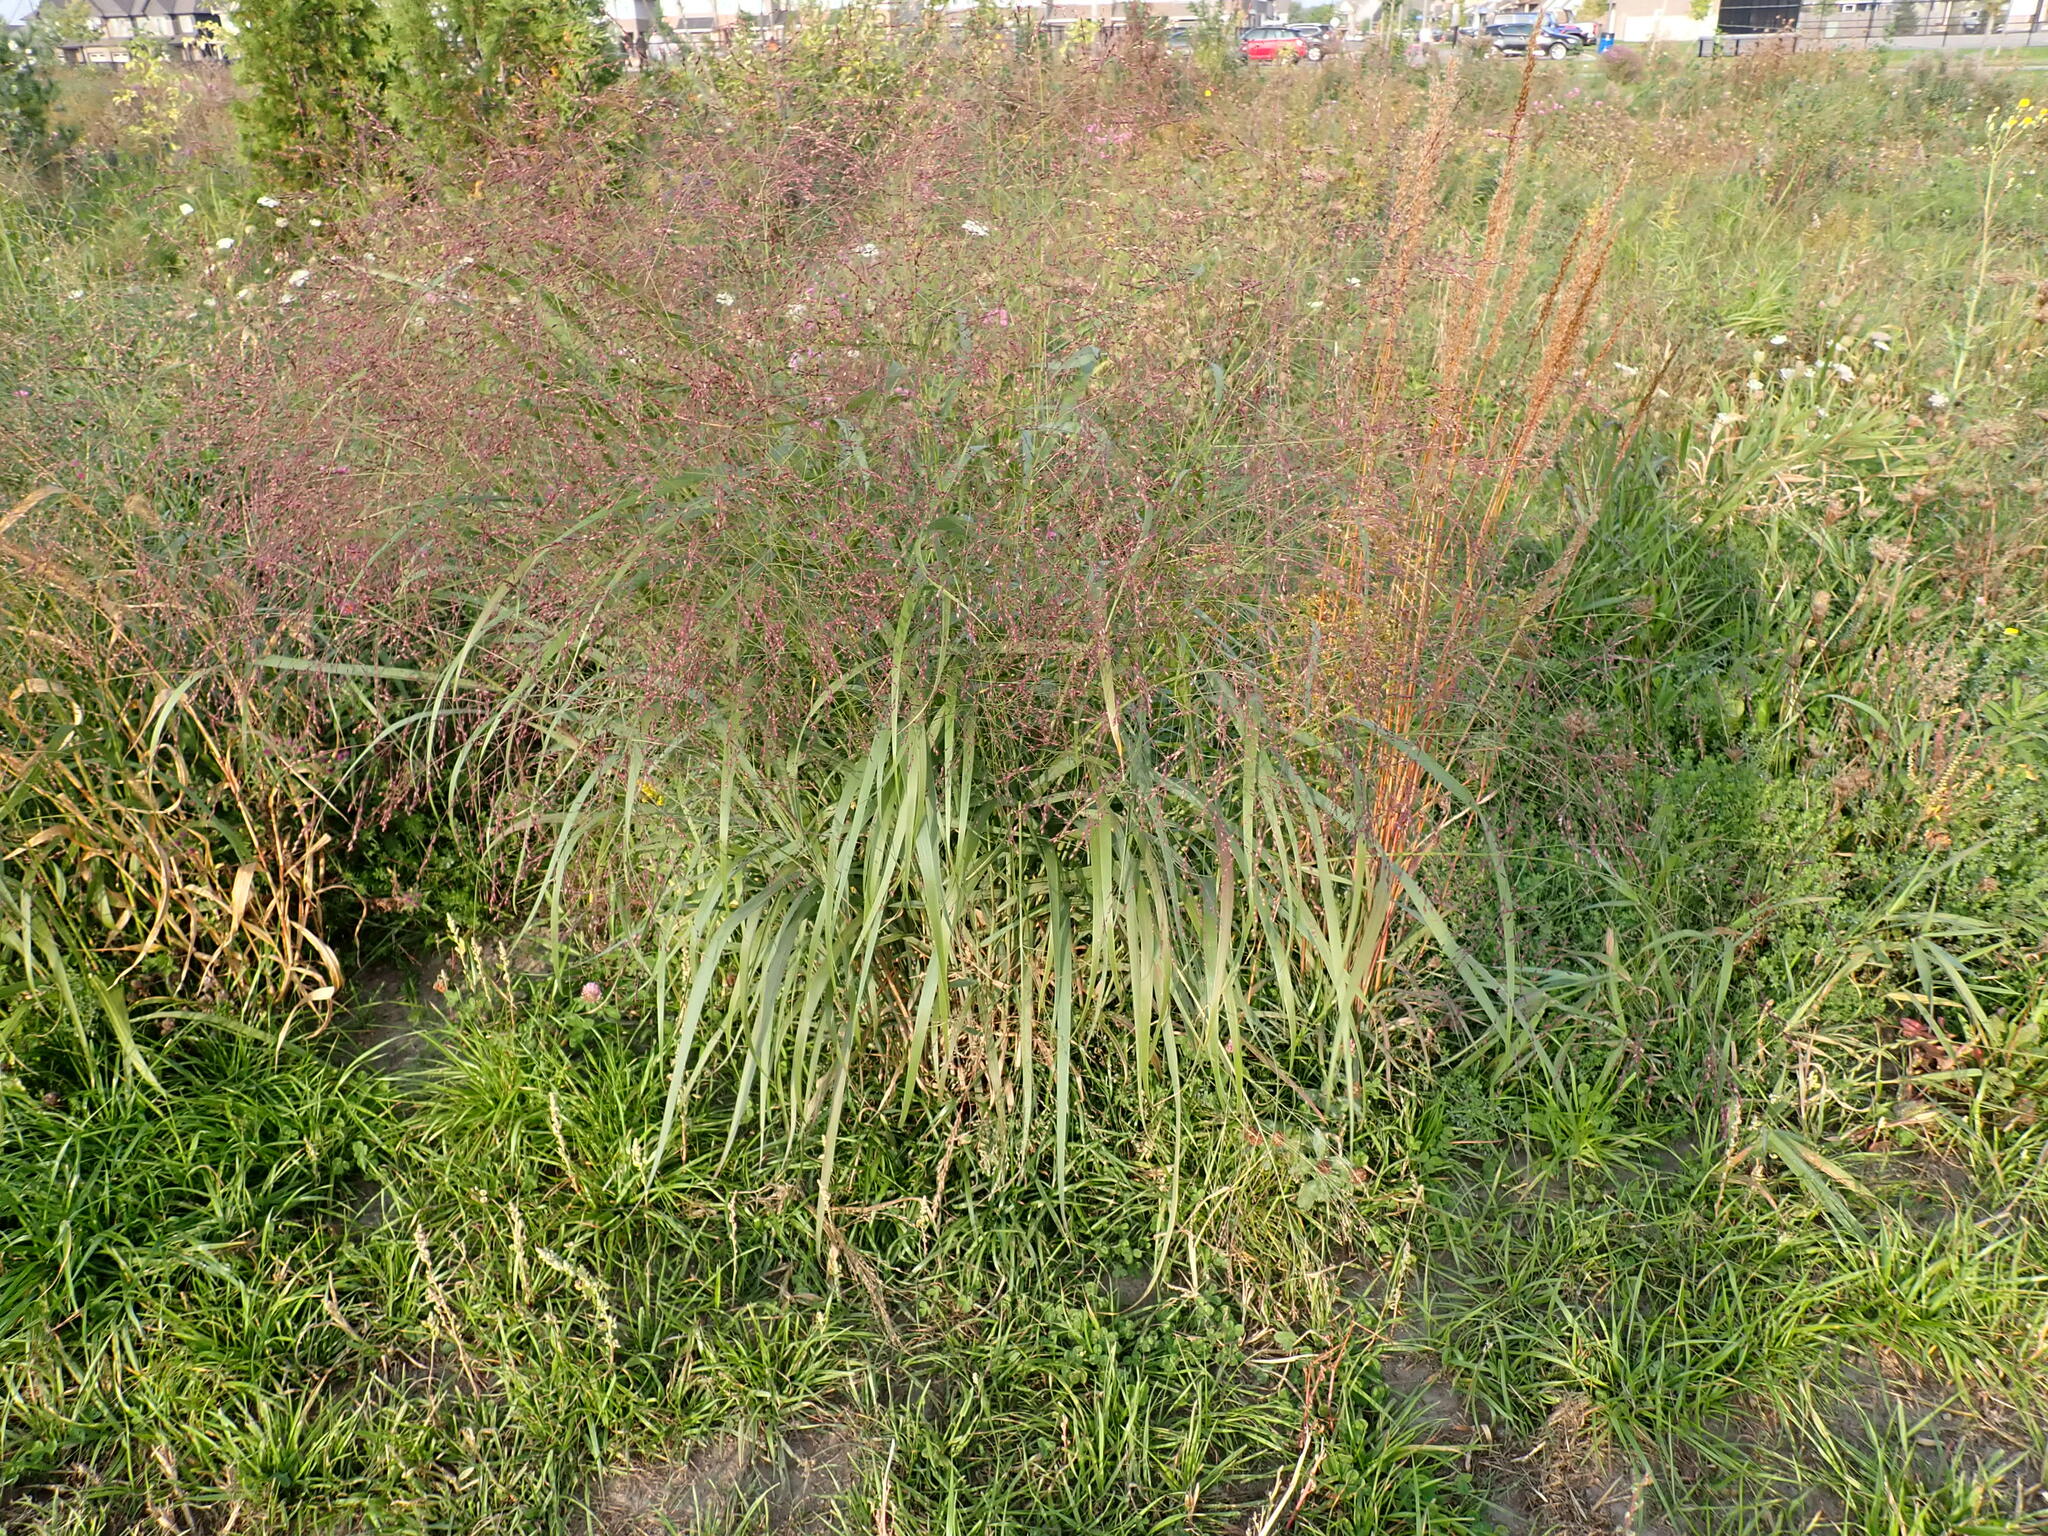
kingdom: Plantae
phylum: Tracheophyta
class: Liliopsida
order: Poales
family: Poaceae
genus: Panicum
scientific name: Panicum virgatum
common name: Switchgrass
